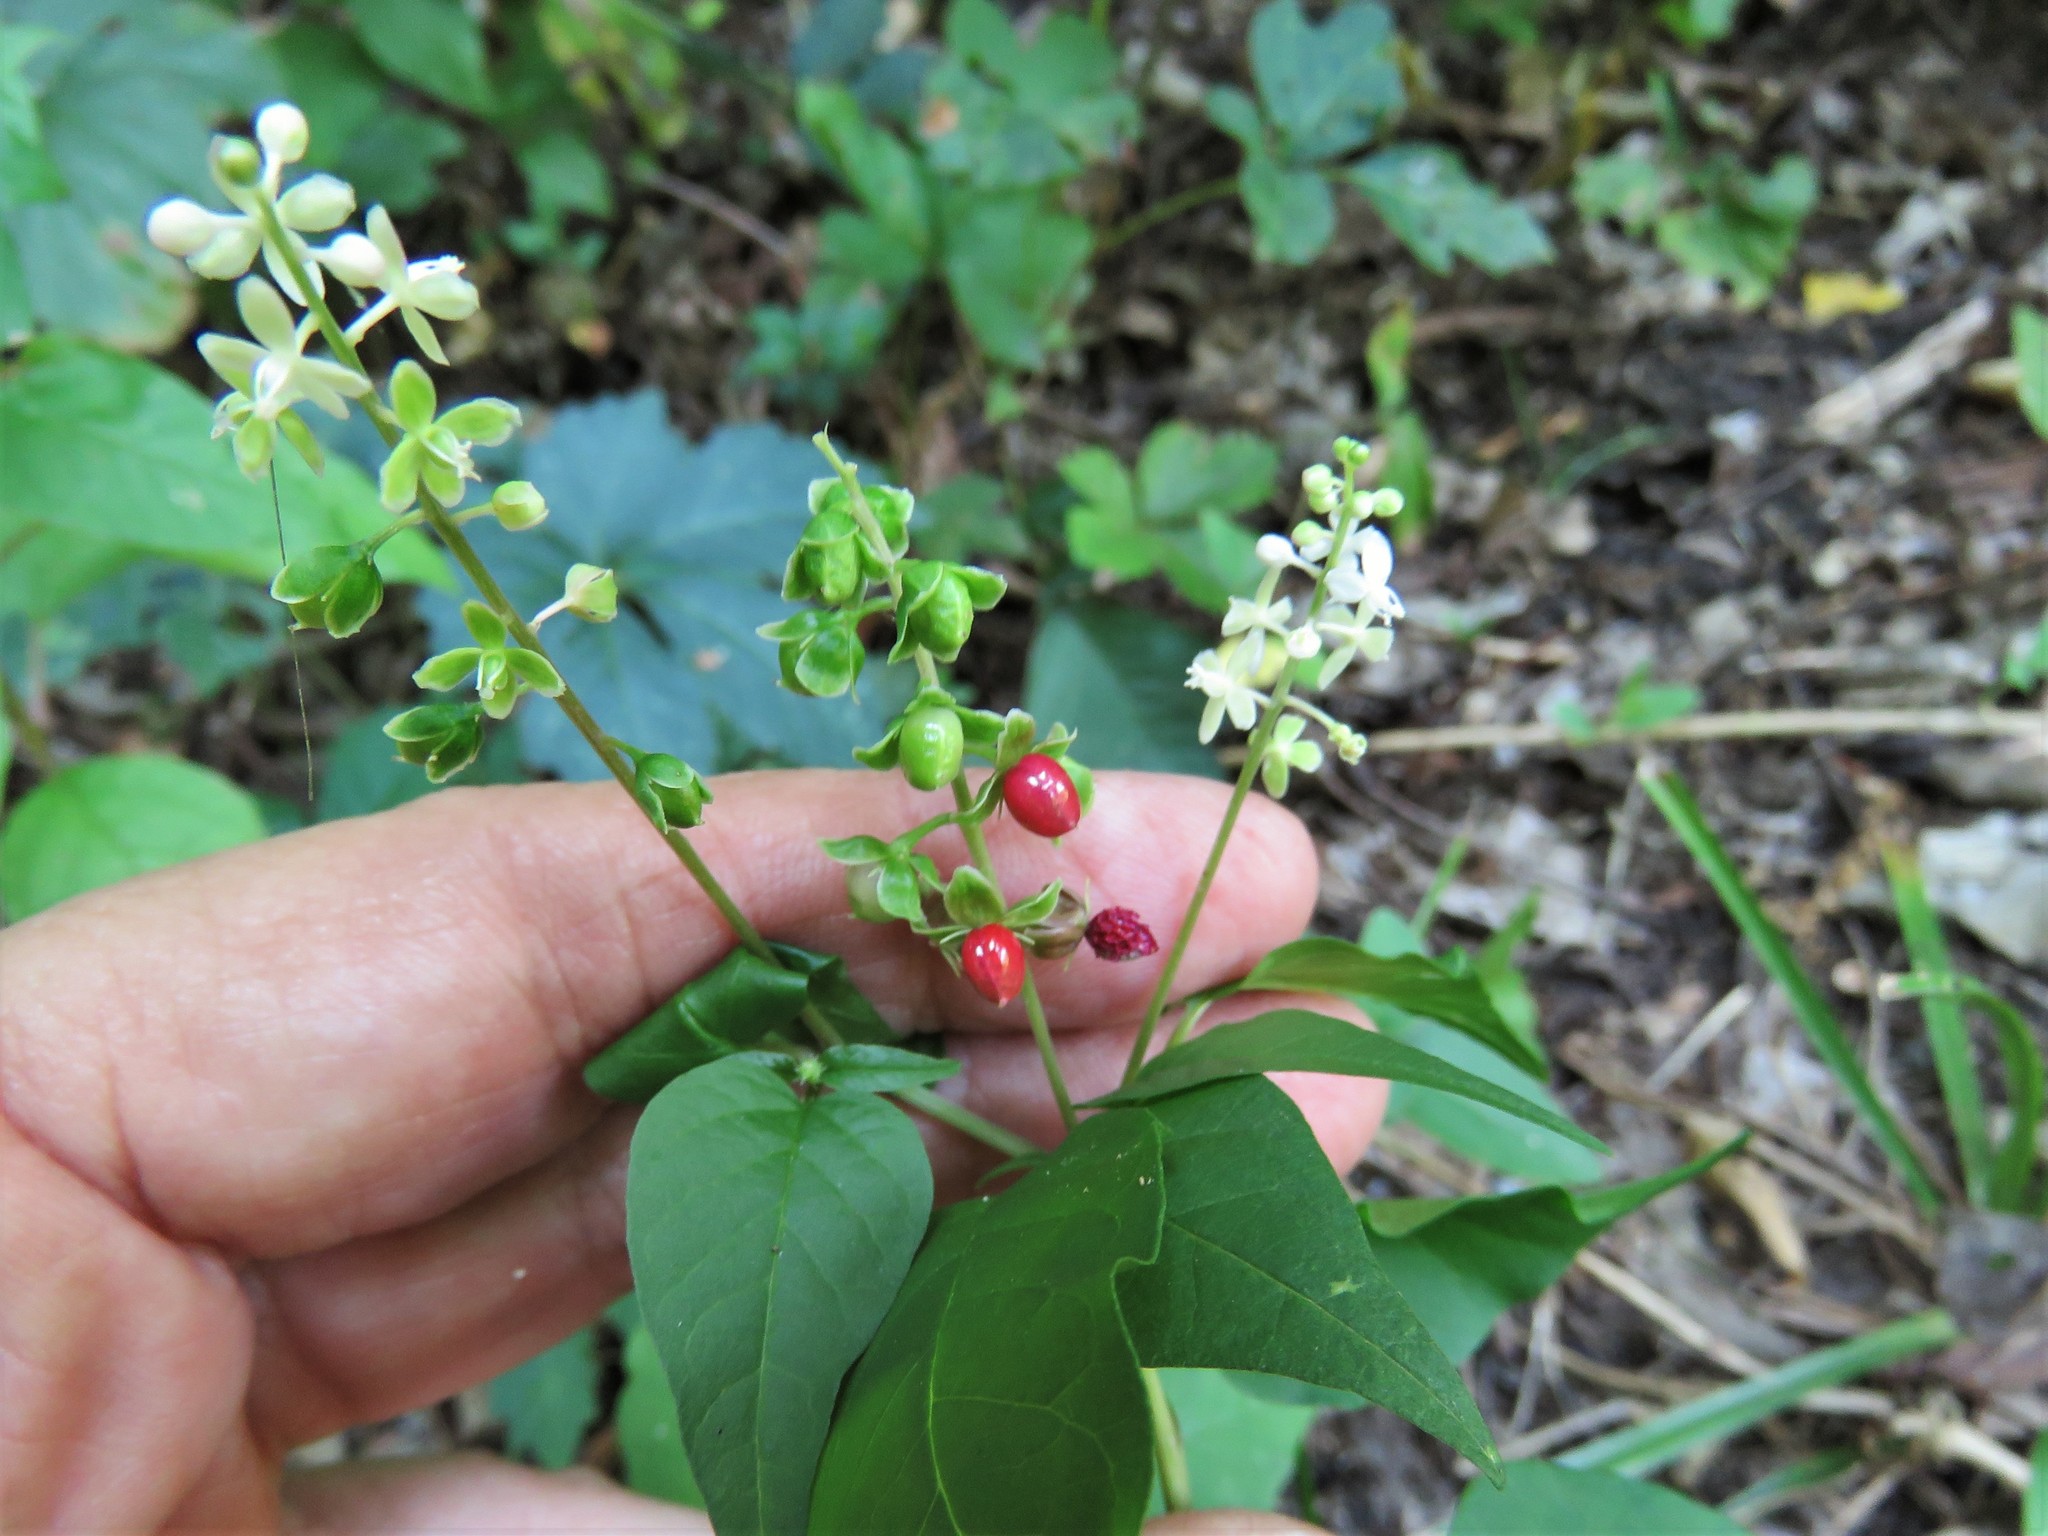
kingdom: Plantae
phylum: Tracheophyta
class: Magnoliopsida
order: Caryophyllales
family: Phytolaccaceae
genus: Rivina
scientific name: Rivina humilis
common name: Rougeplant
